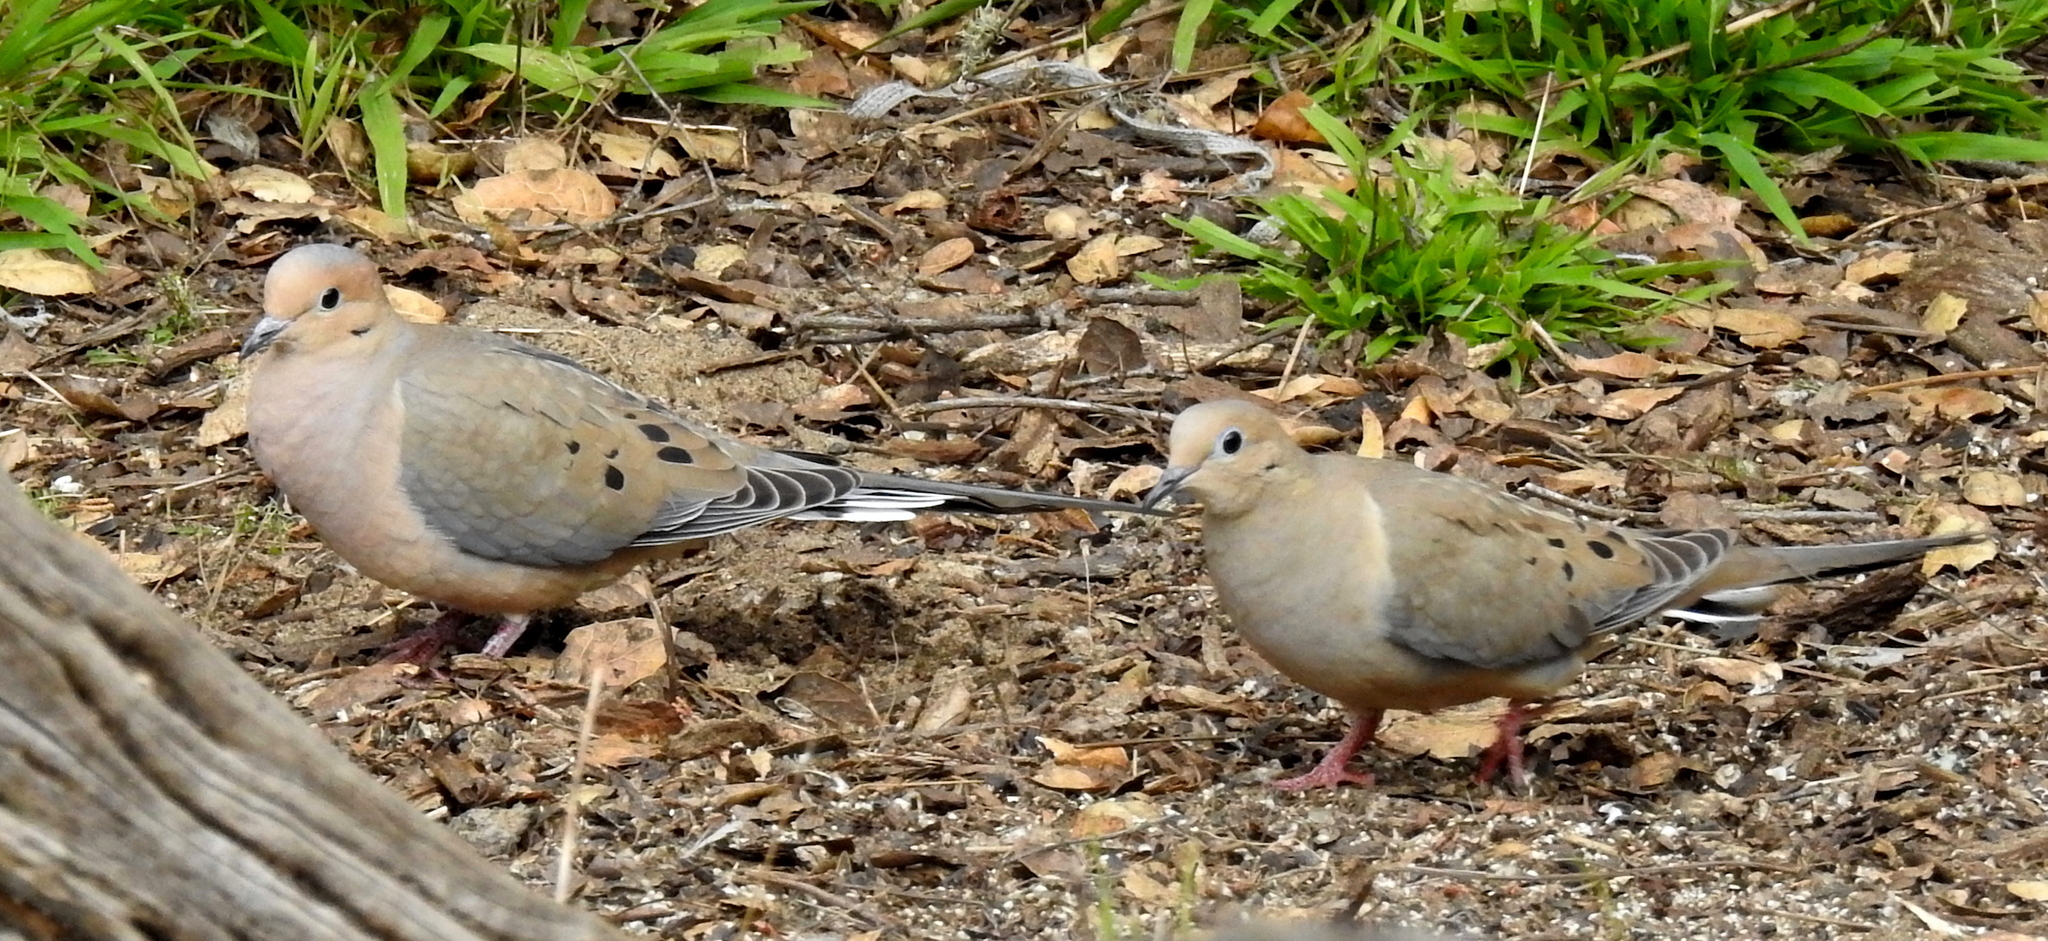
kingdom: Animalia
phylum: Chordata
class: Aves
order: Columbiformes
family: Columbidae
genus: Zenaida
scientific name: Zenaida macroura
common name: Mourning dove
